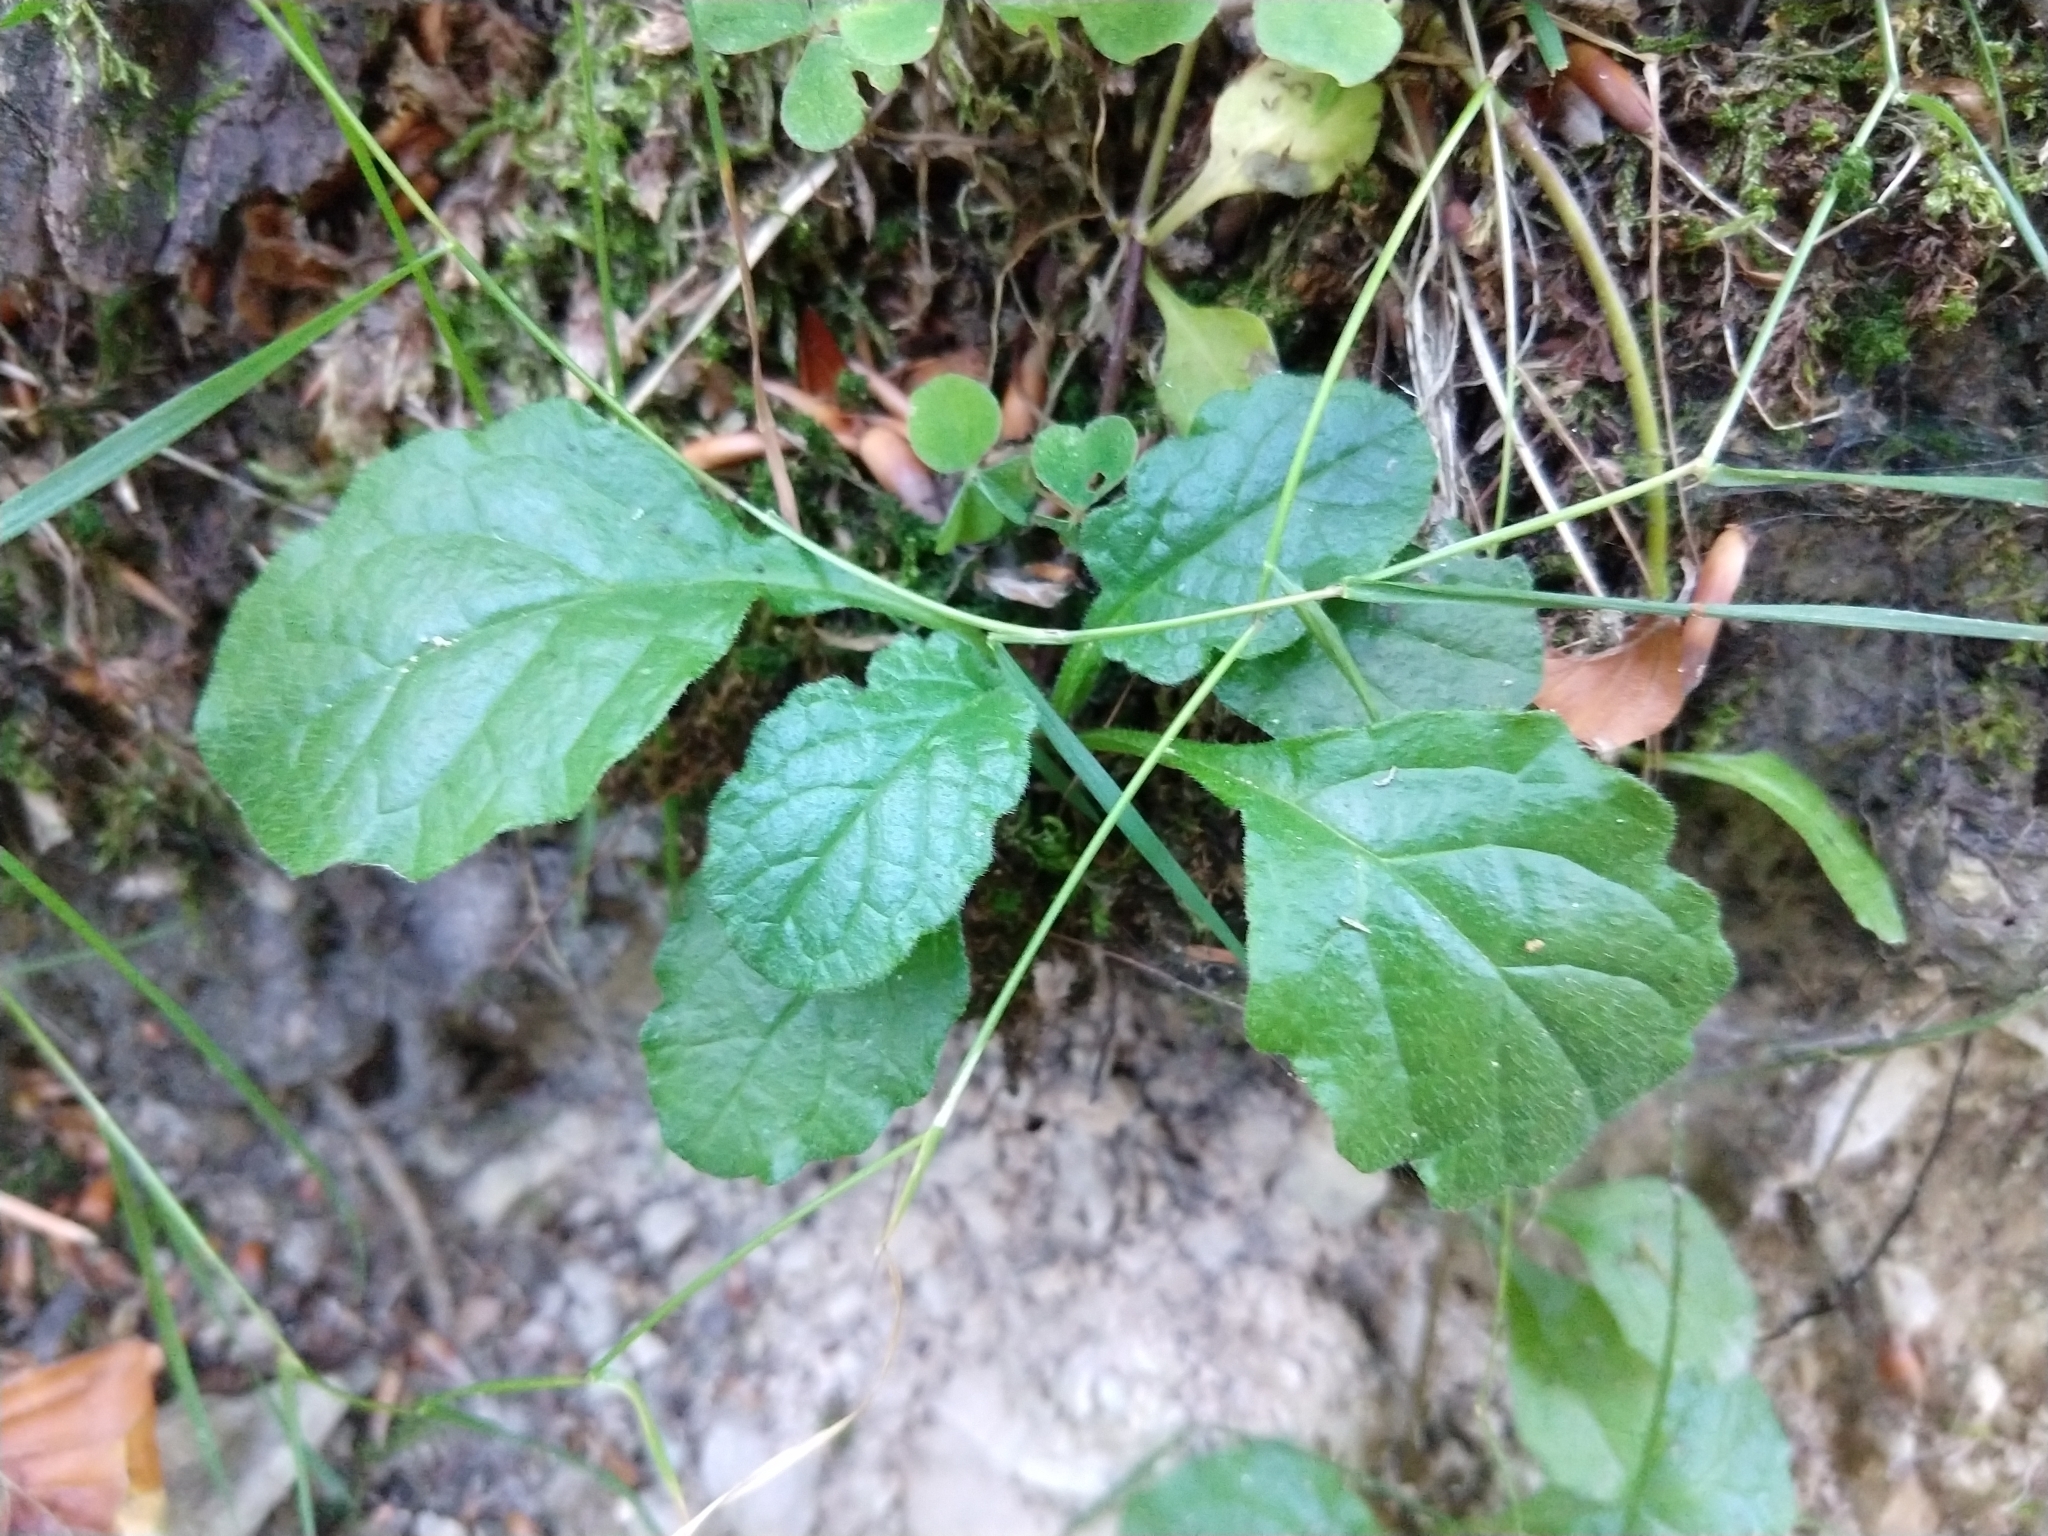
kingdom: Plantae
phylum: Tracheophyta
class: Magnoliopsida
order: Lamiales
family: Lamiaceae
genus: Ajuga
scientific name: Ajuga reptans
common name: Bugle
